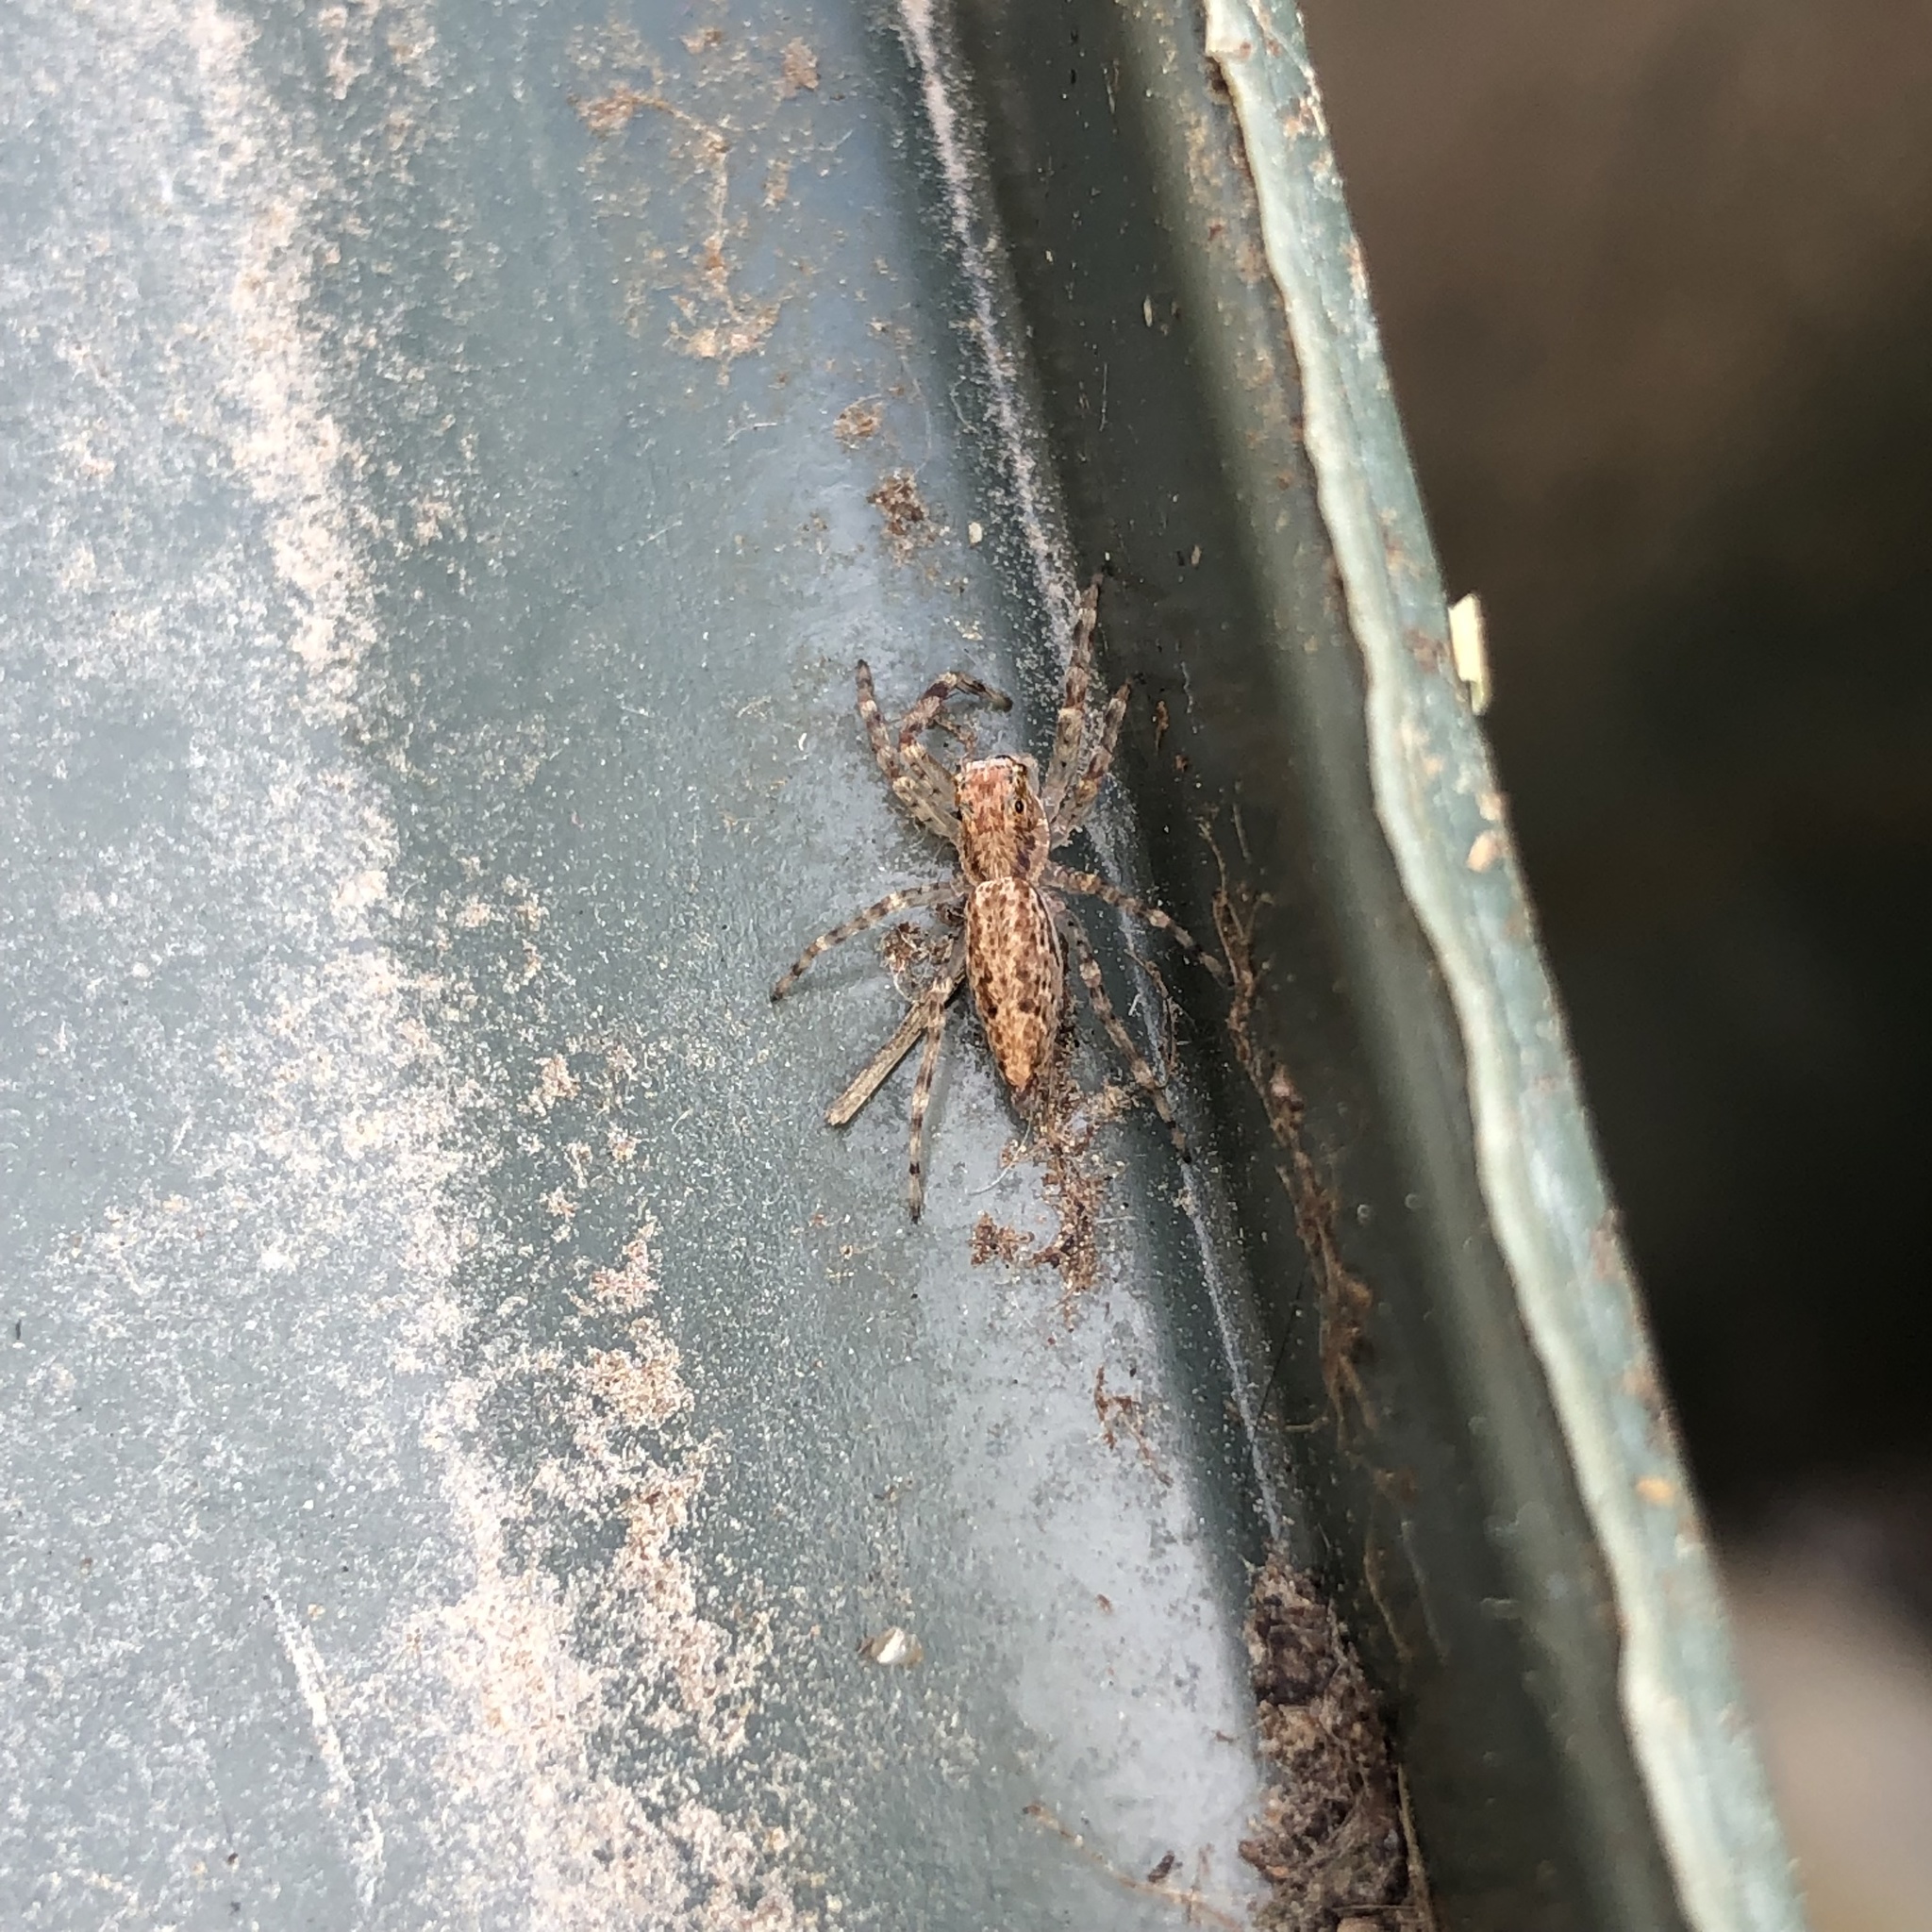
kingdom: Animalia
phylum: Arthropoda
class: Arachnida
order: Araneae
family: Salticidae
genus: Helpis
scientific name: Helpis minitabunda
